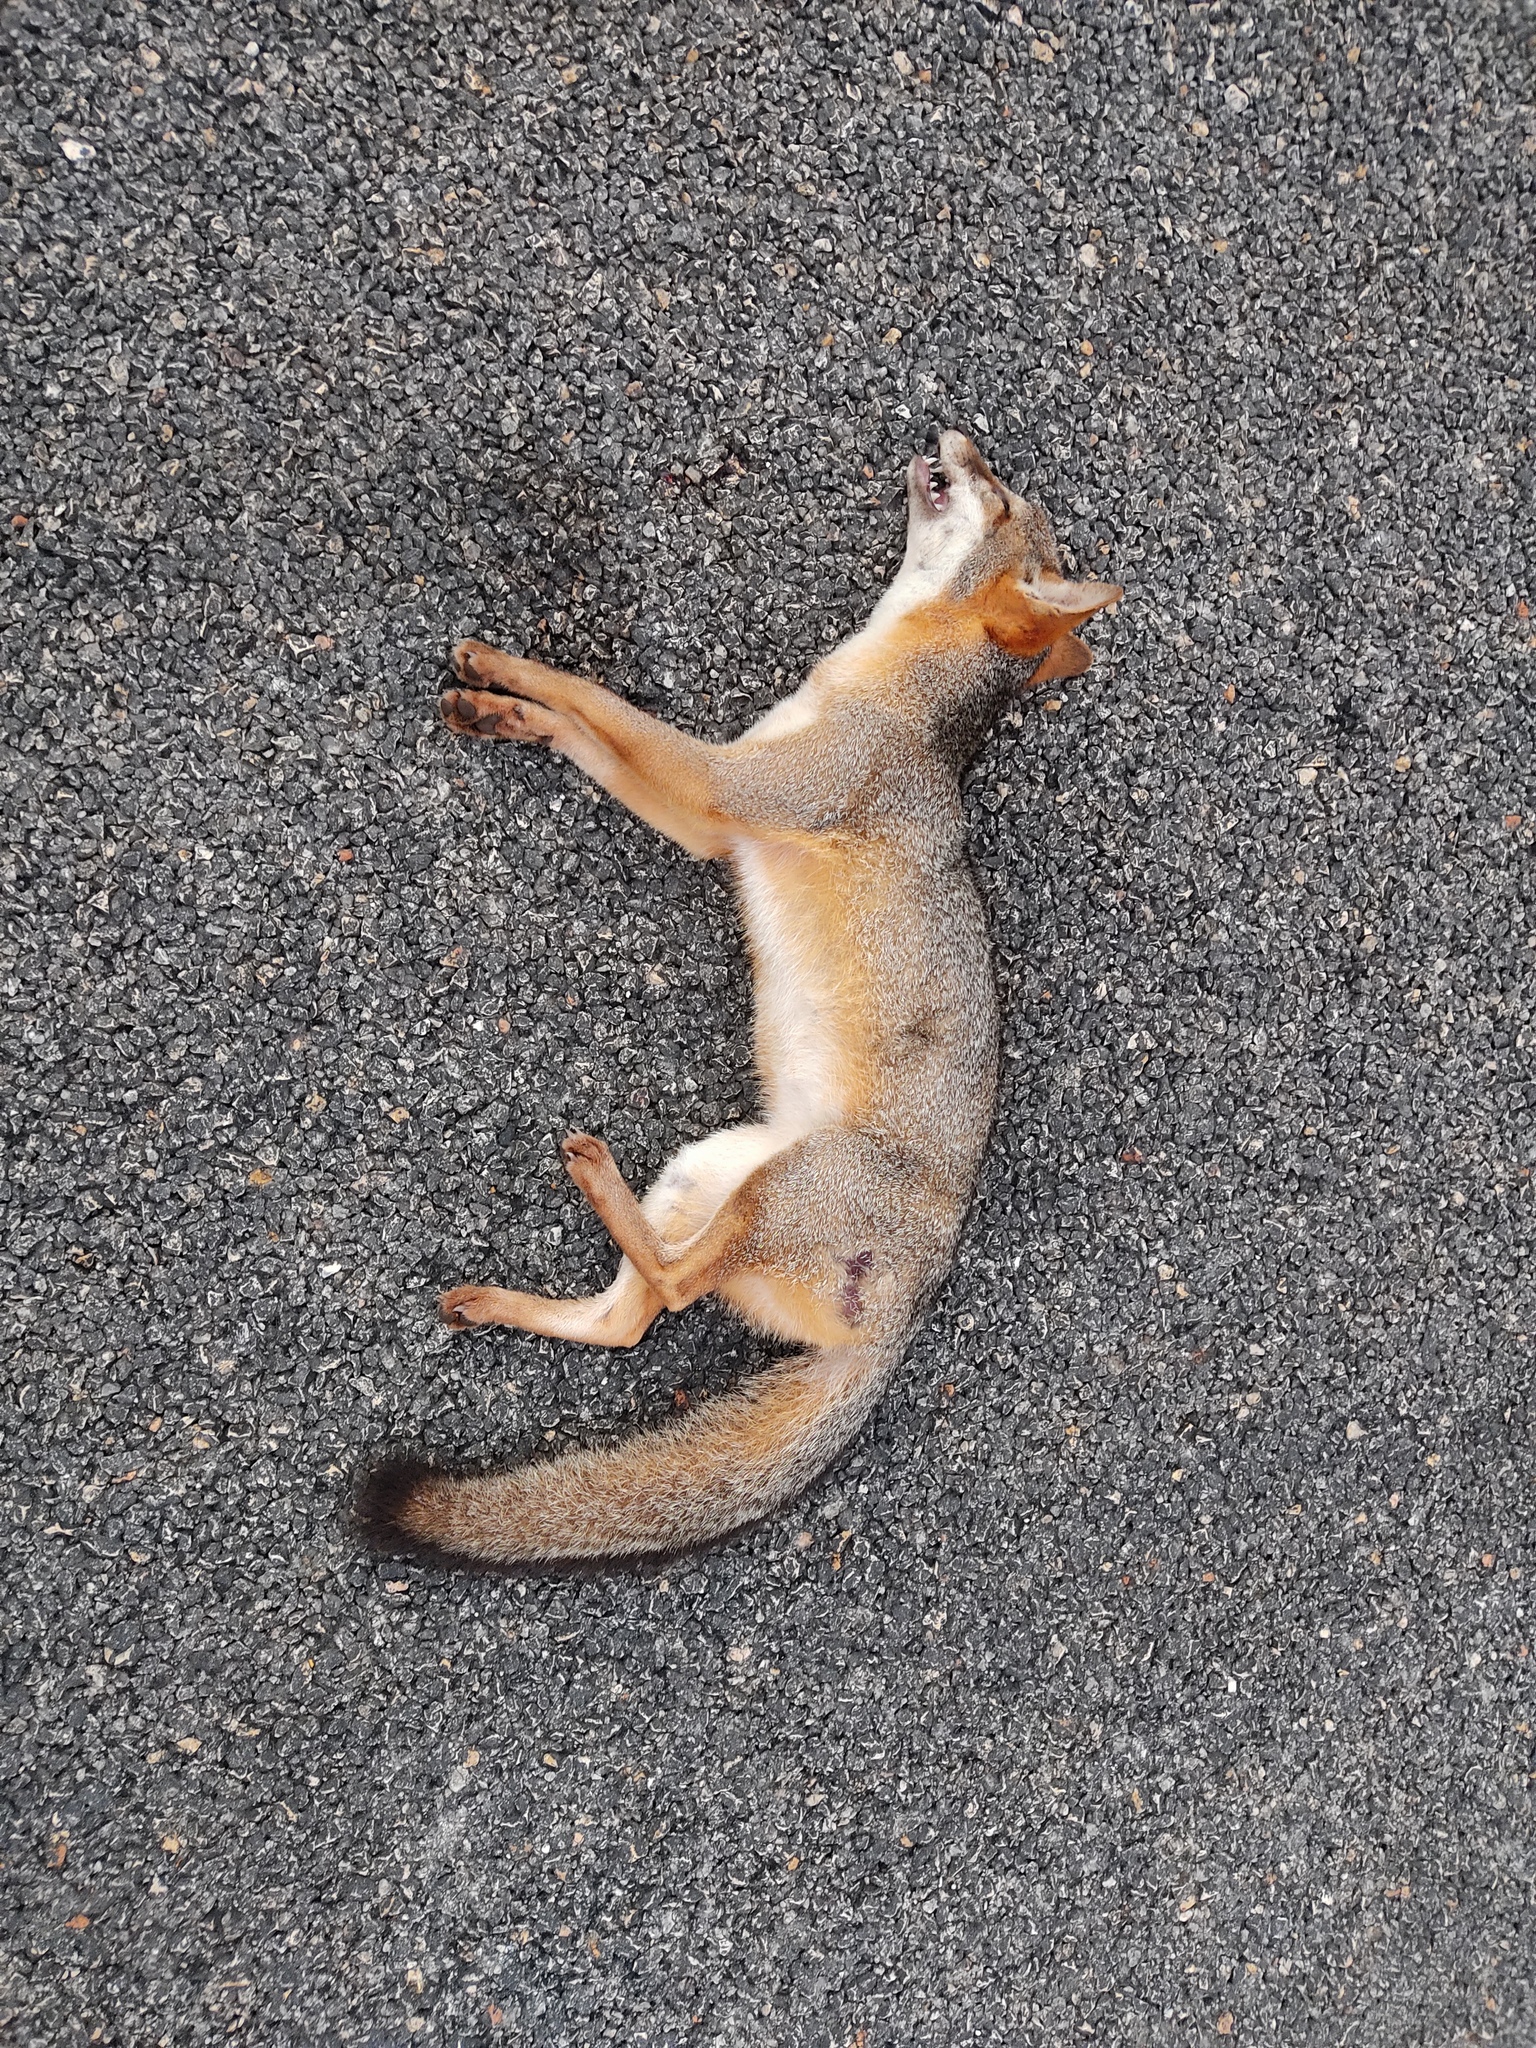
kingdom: Animalia
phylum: Chordata
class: Mammalia
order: Carnivora
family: Canidae
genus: Urocyon
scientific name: Urocyon cinereoargenteus
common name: Gray fox
